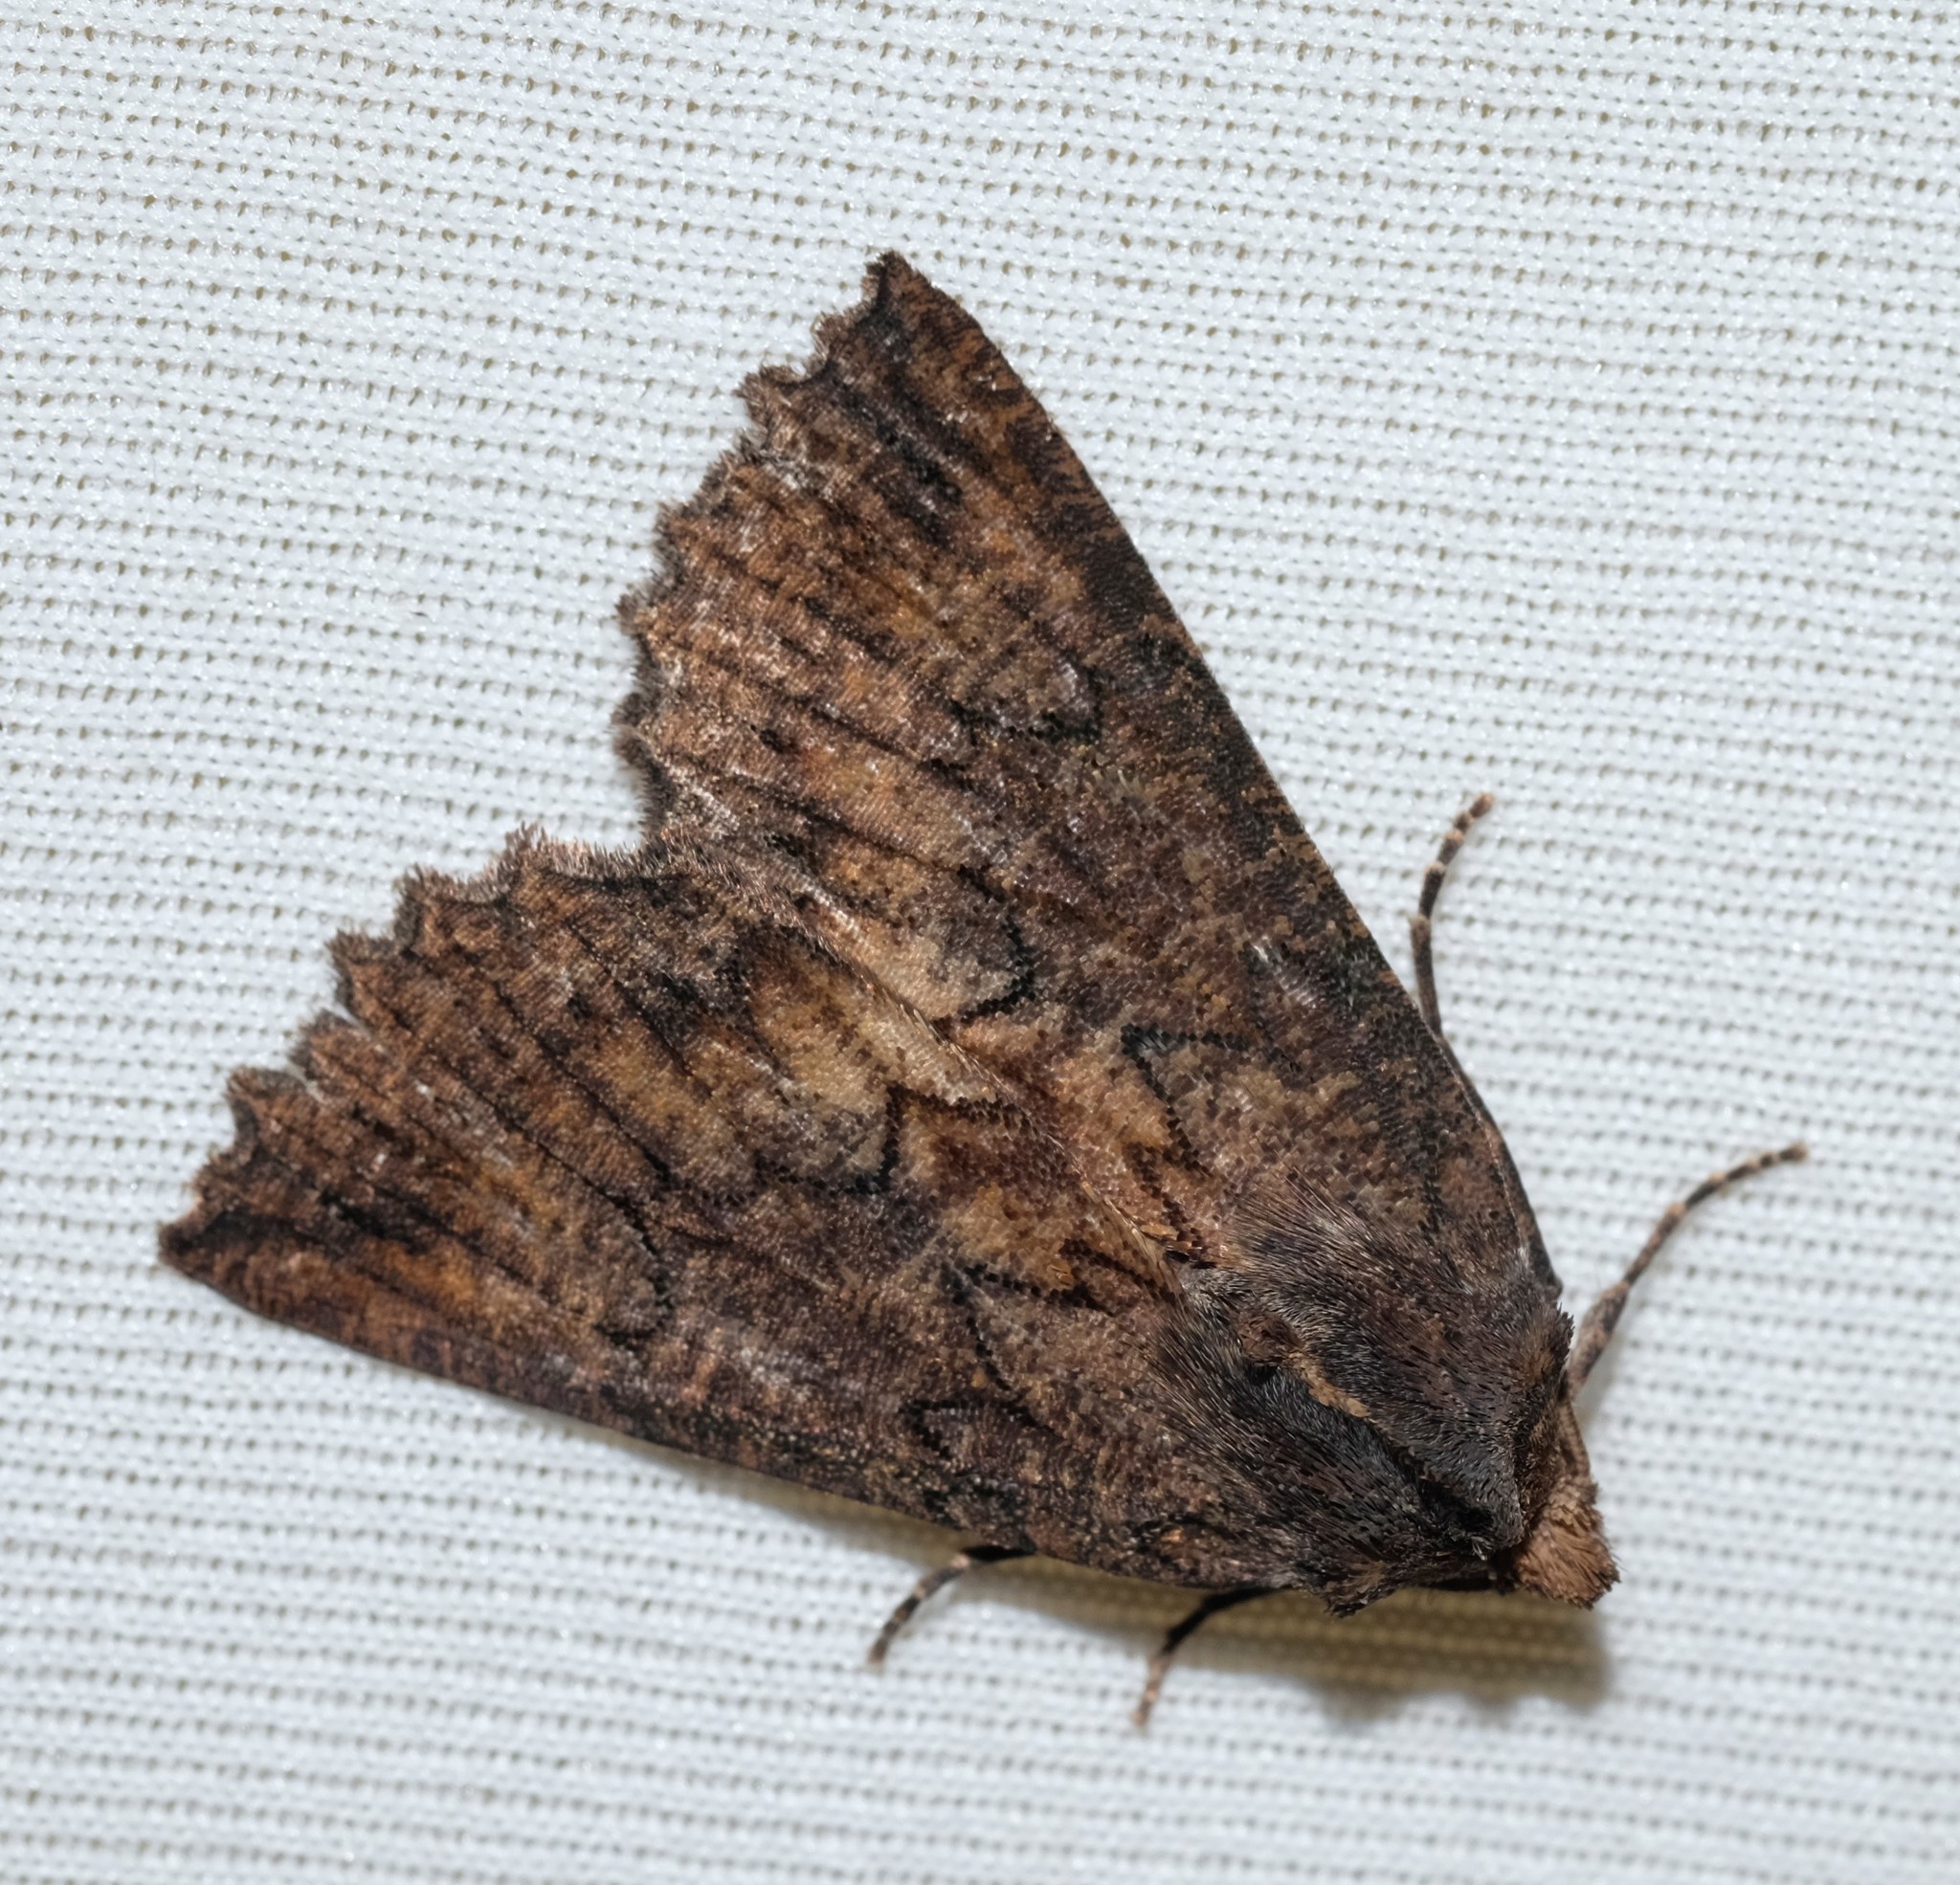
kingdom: Animalia
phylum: Arthropoda
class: Insecta
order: Lepidoptera
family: Geometridae
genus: Nisista
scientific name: Nisista serrata
